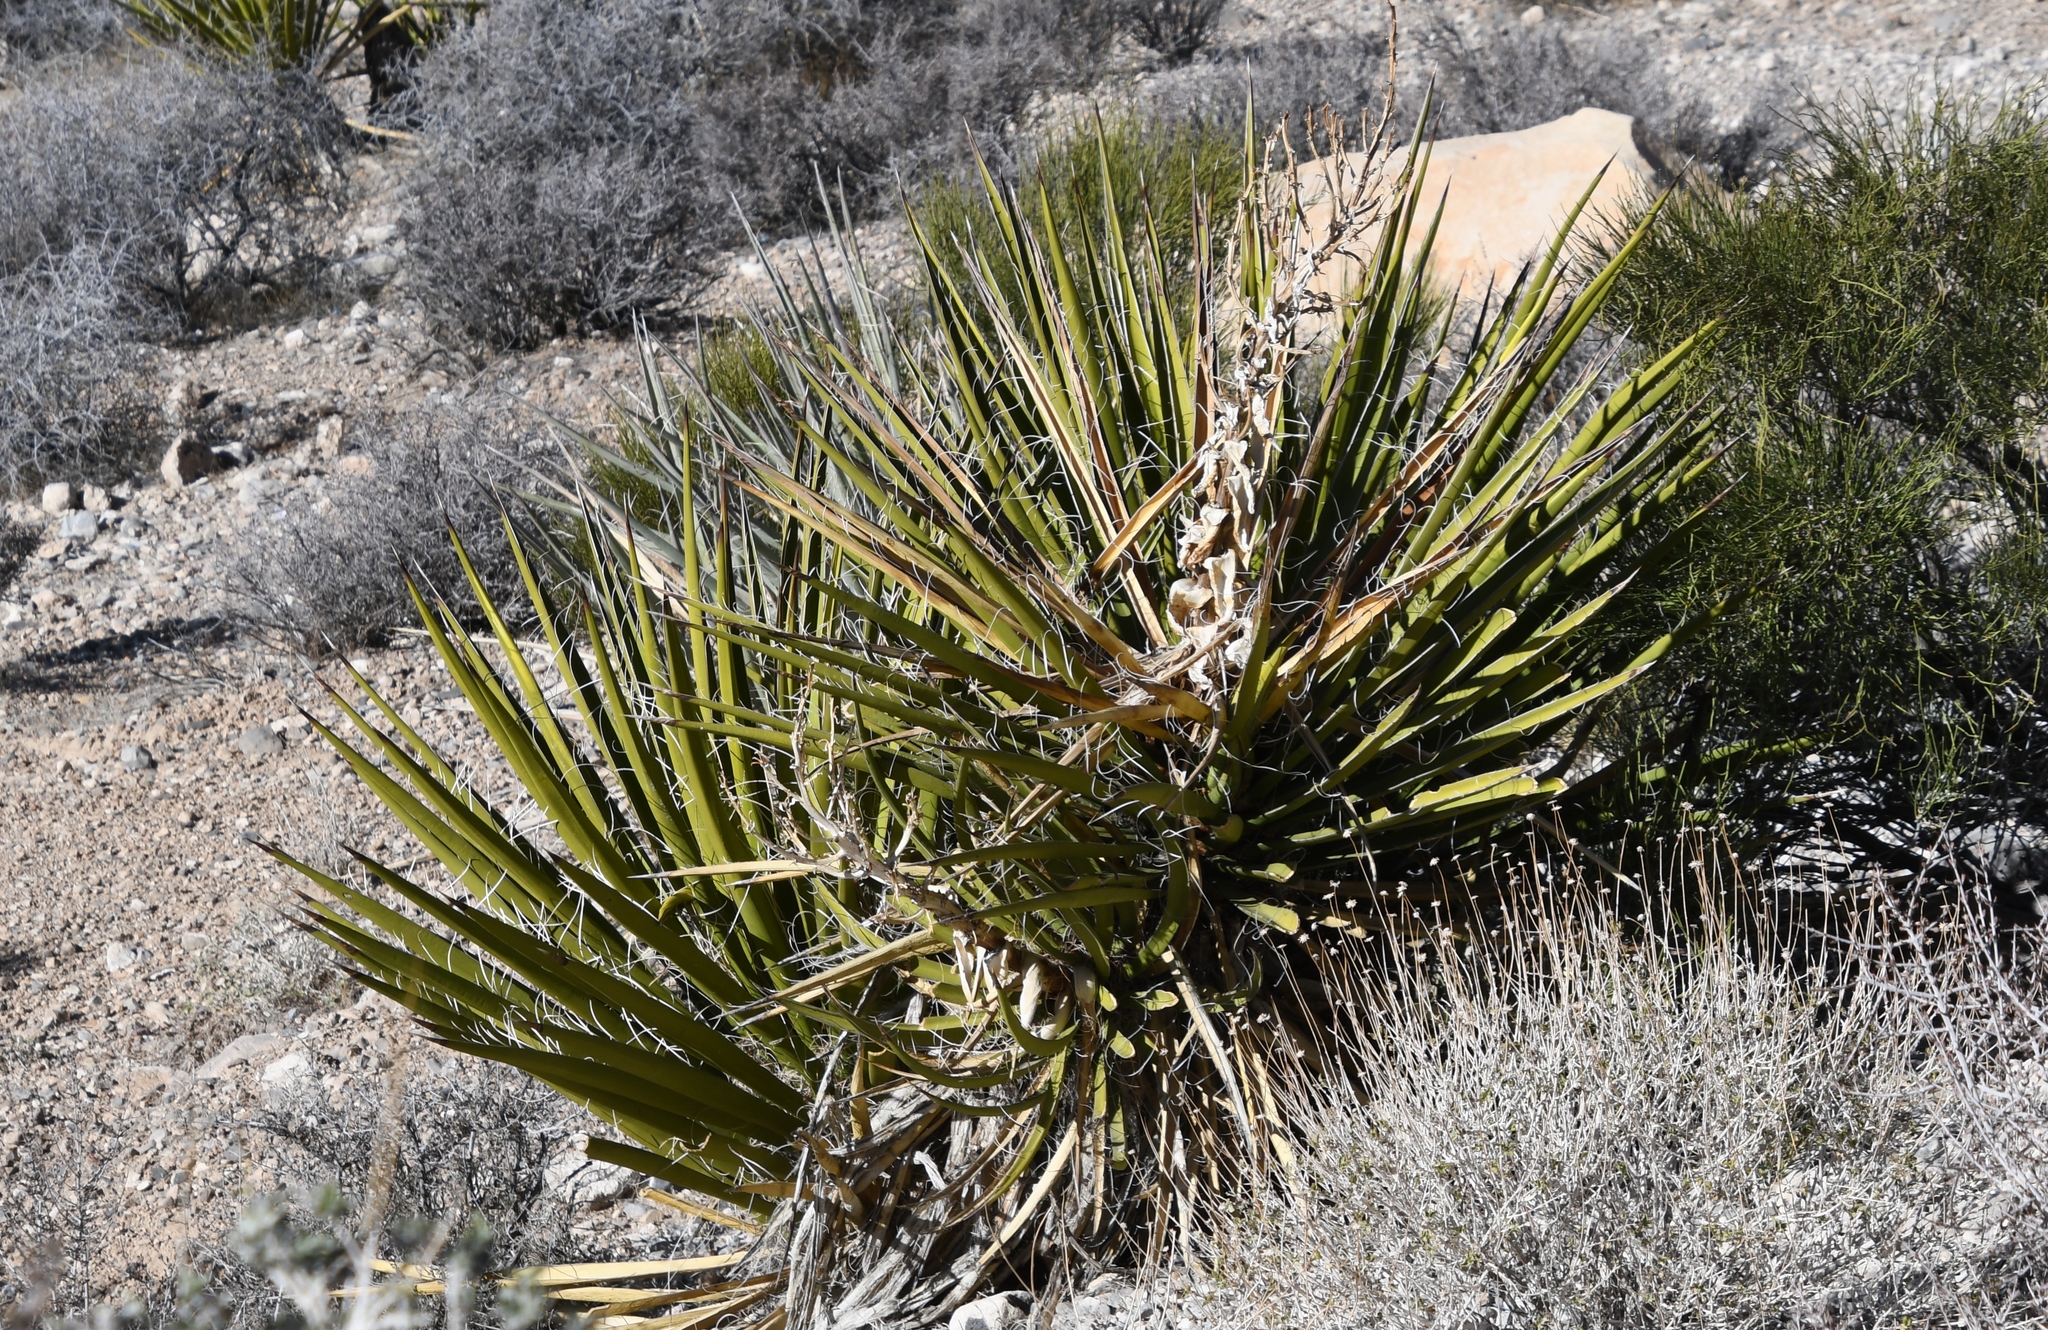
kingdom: Plantae
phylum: Tracheophyta
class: Liliopsida
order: Asparagales
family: Asparagaceae
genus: Yucca
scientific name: Yucca schidigera
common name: Mojave yucca
